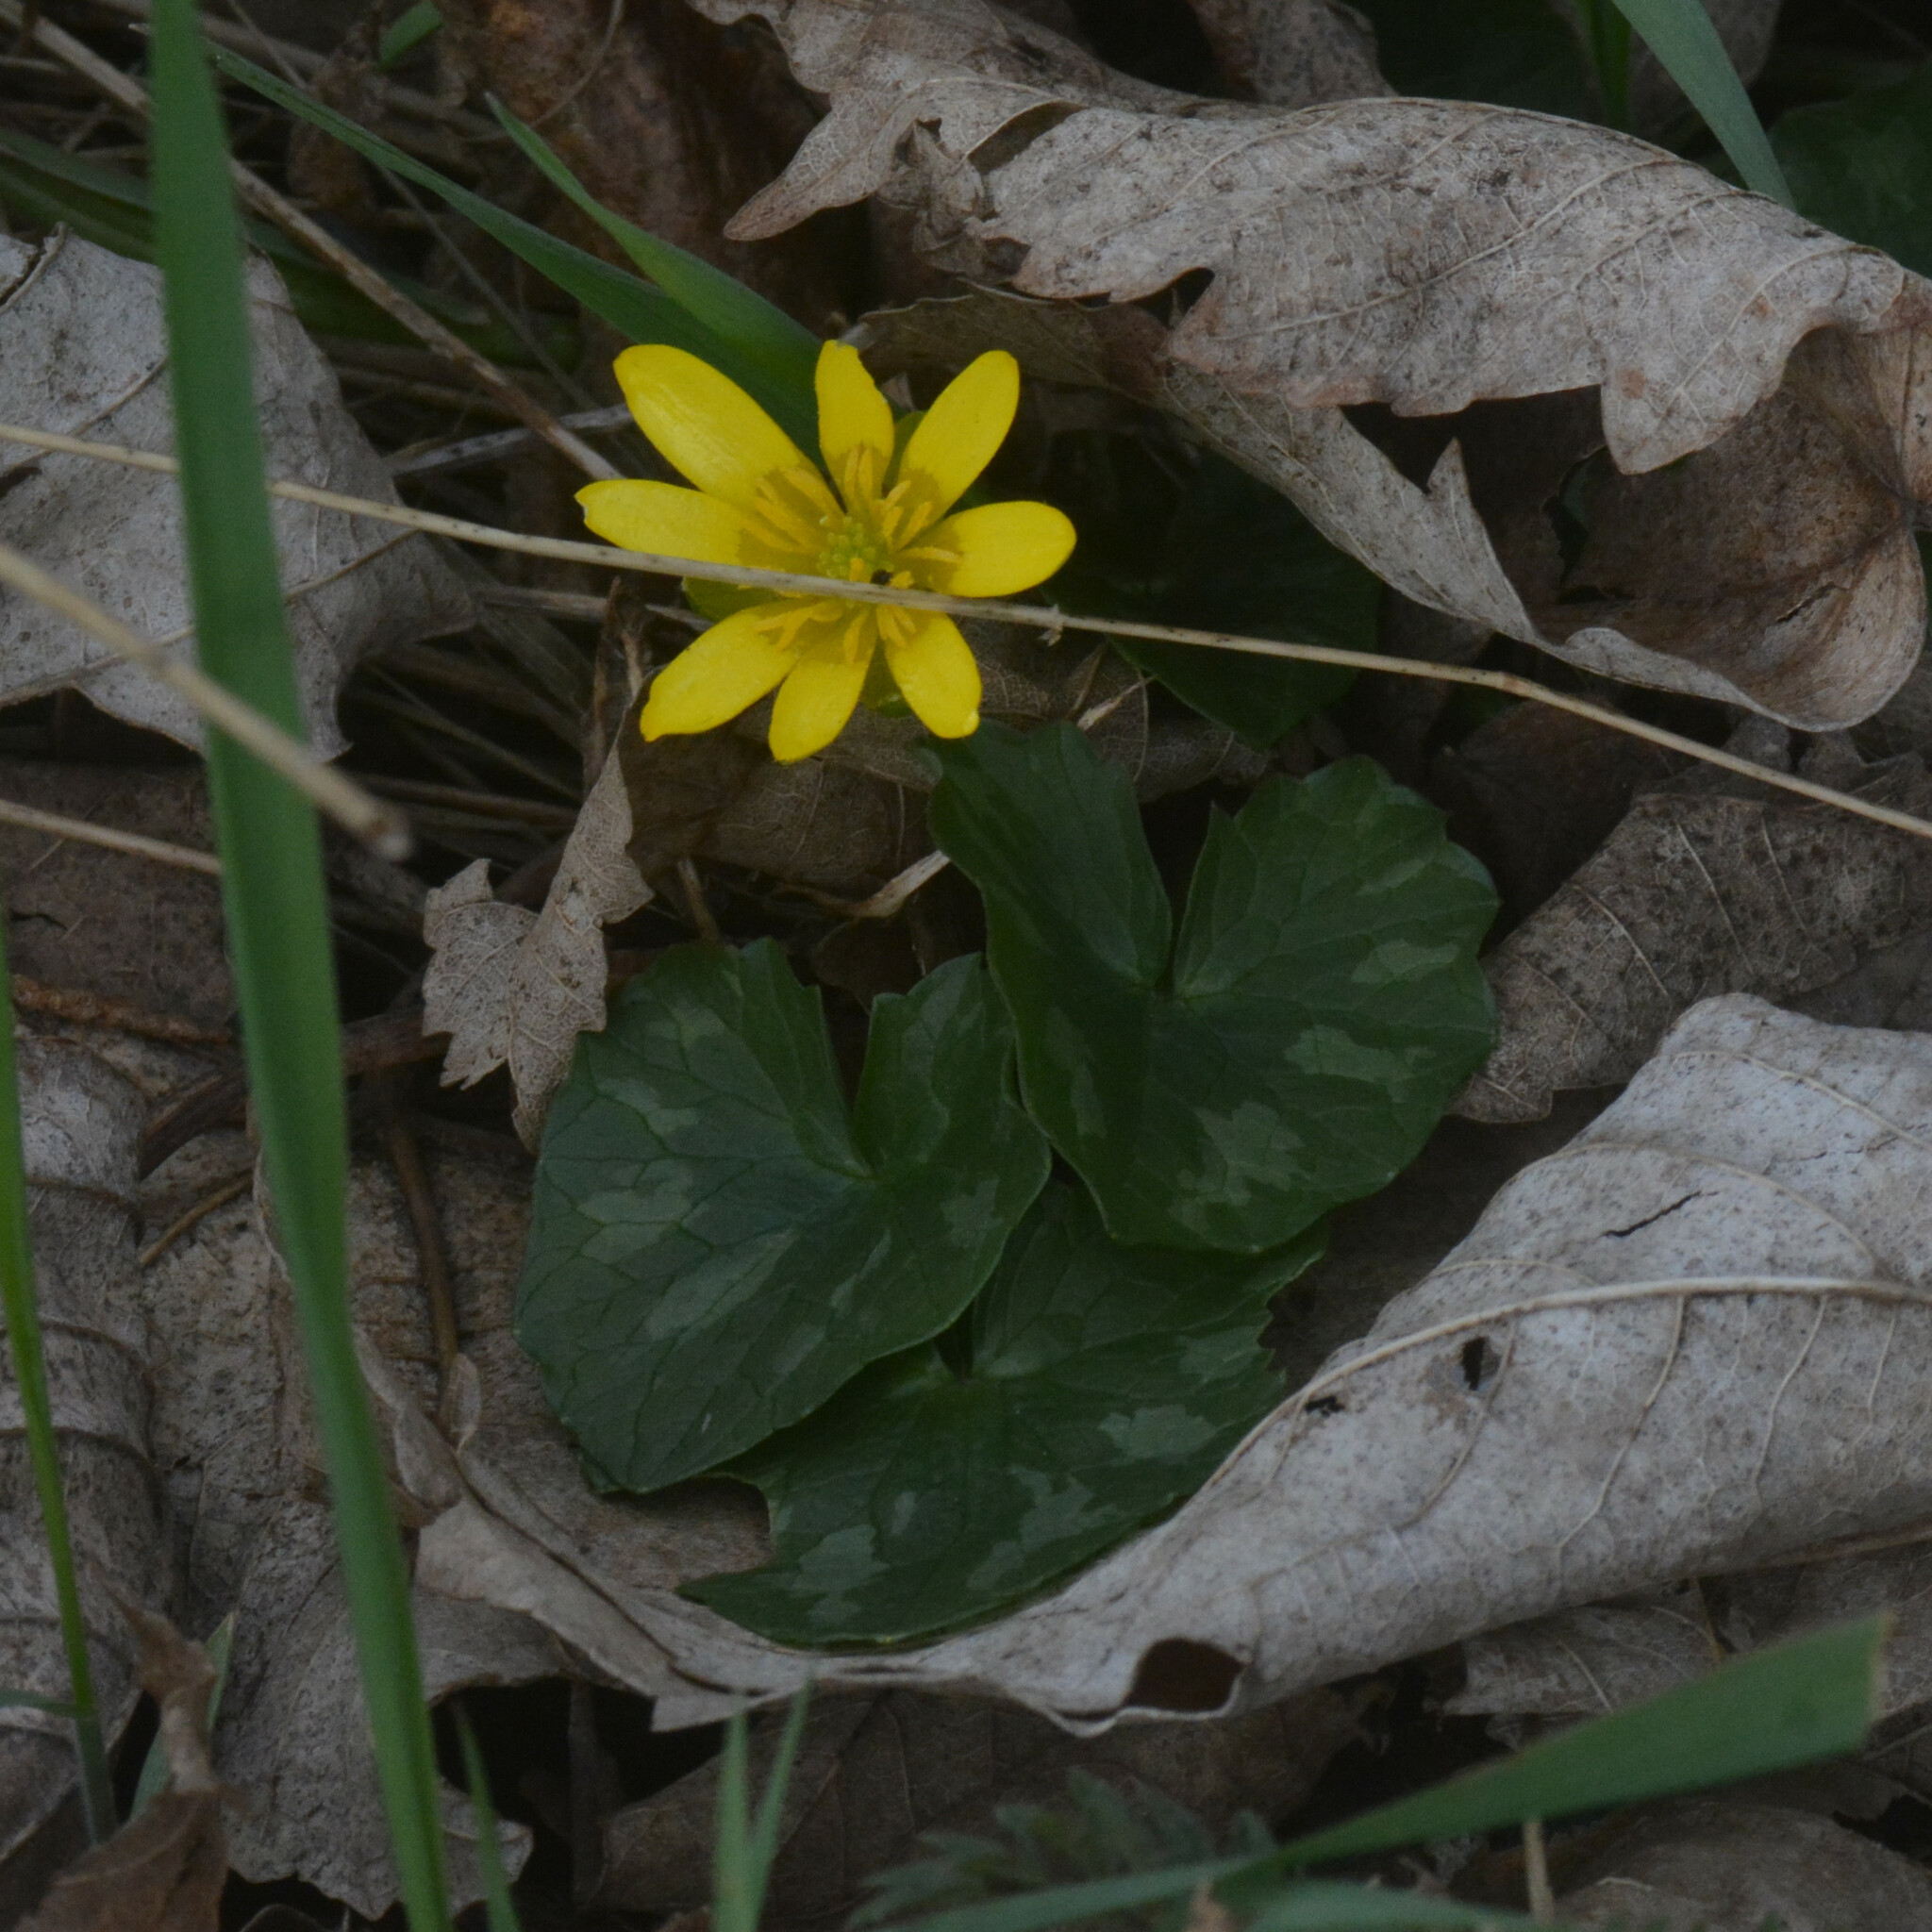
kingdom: Plantae
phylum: Tracheophyta
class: Magnoliopsida
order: Ranunculales
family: Ranunculaceae
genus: Ficaria
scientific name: Ficaria verna
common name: Lesser celandine
